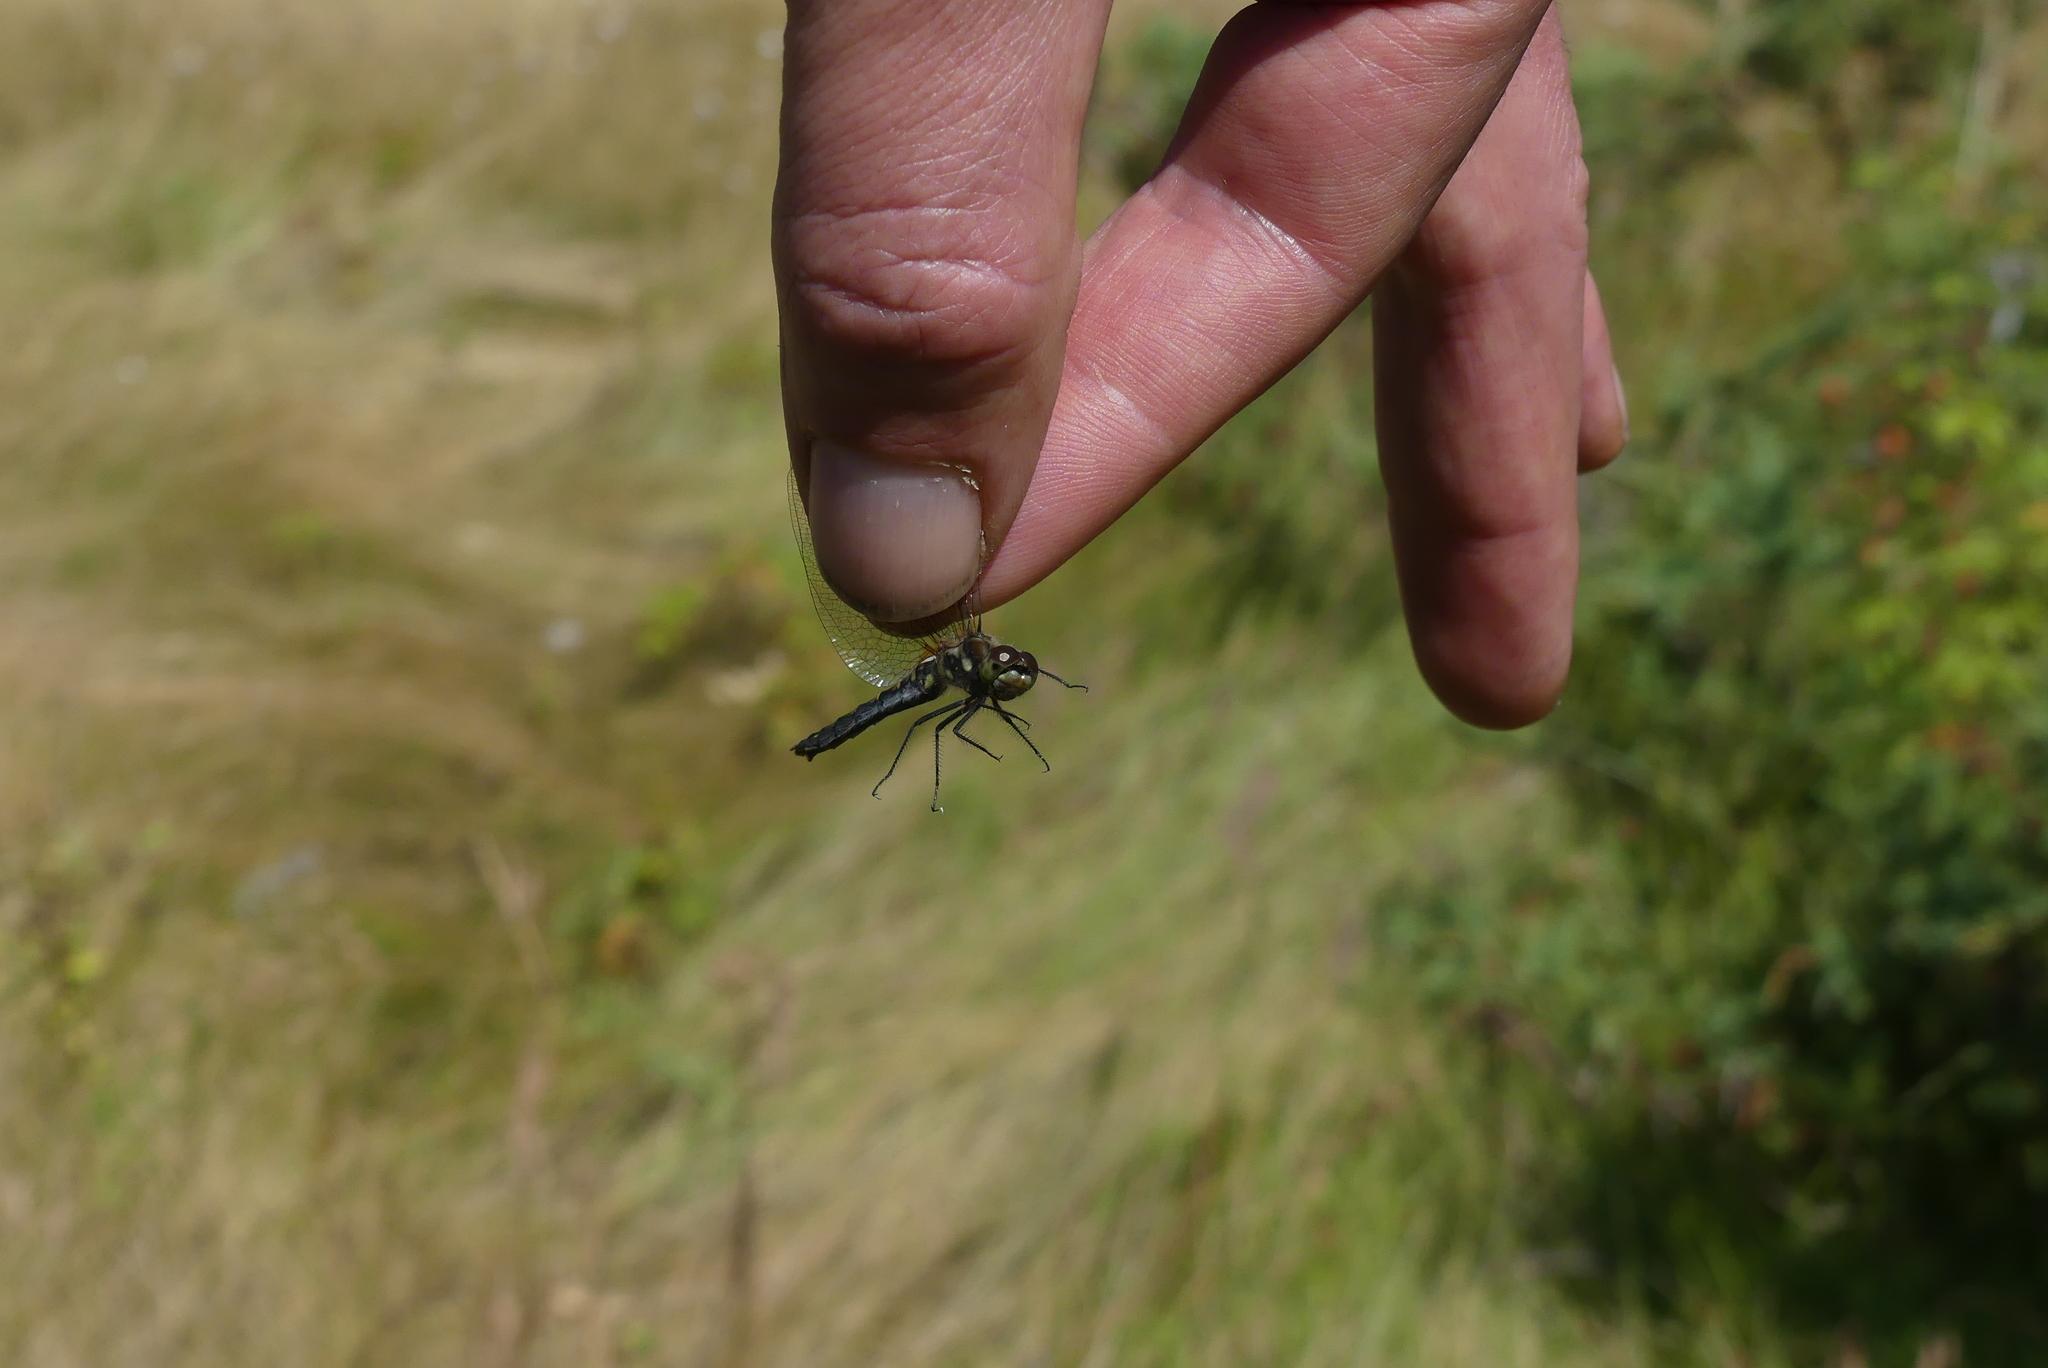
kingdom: Animalia
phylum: Arthropoda
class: Insecta
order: Odonata
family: Libellulidae
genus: Sympetrum
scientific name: Sympetrum danae
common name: Black darter
